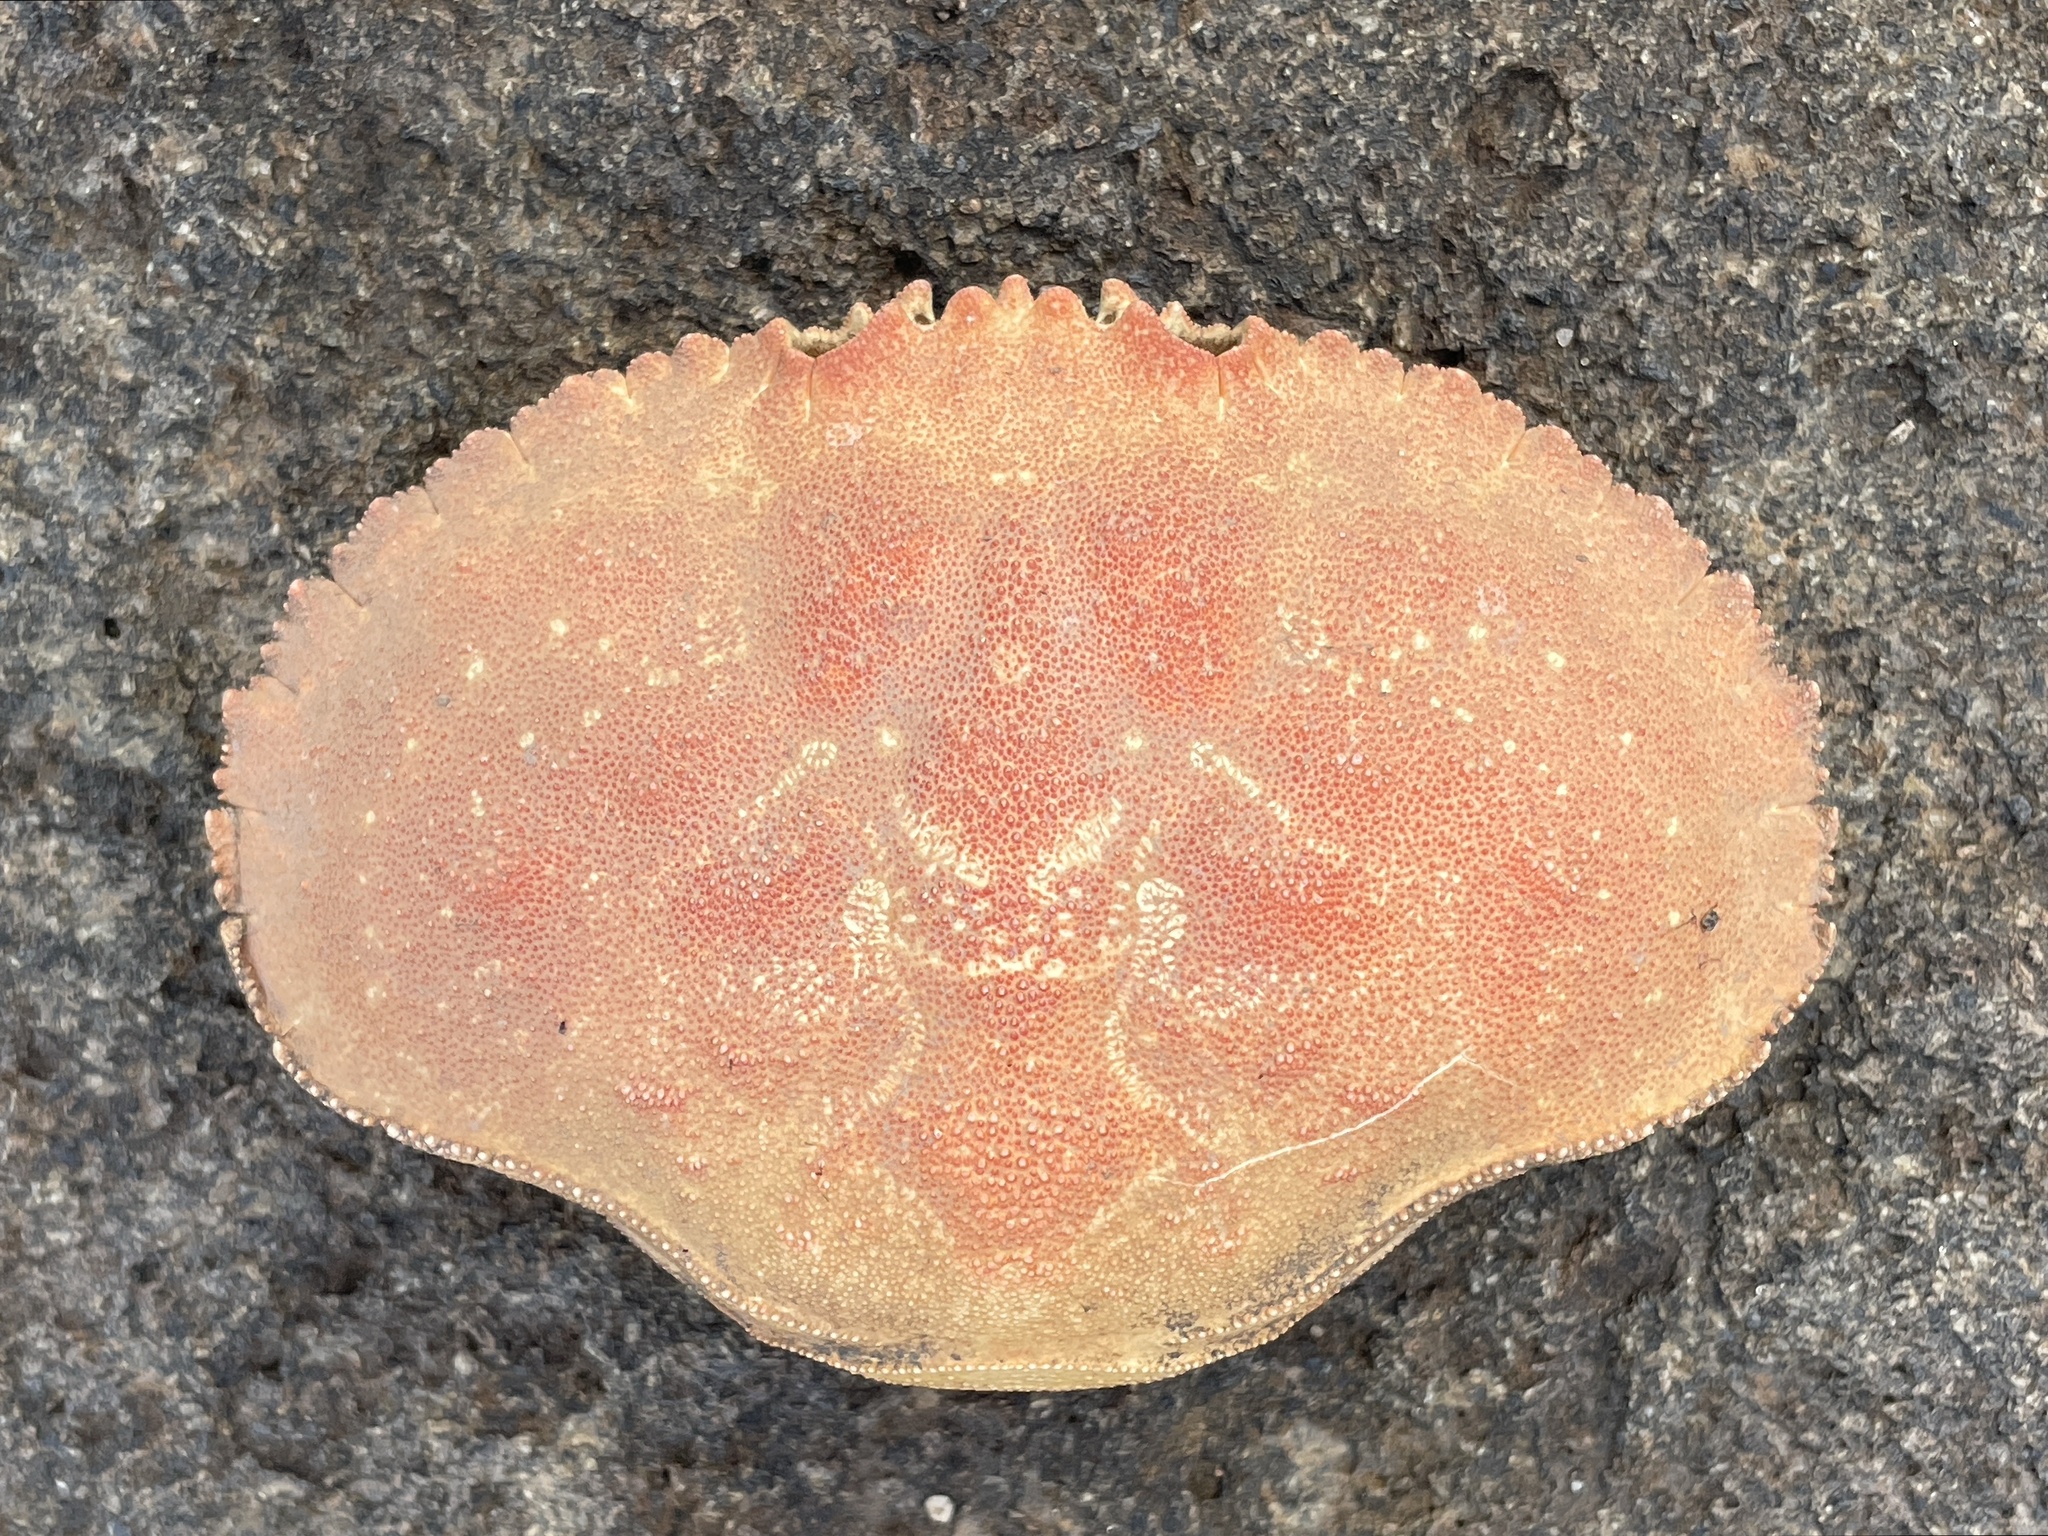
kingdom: Animalia
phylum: Arthropoda
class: Malacostraca
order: Decapoda
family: Cancridae
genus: Cancer
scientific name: Cancer borealis
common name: Jonah crab
